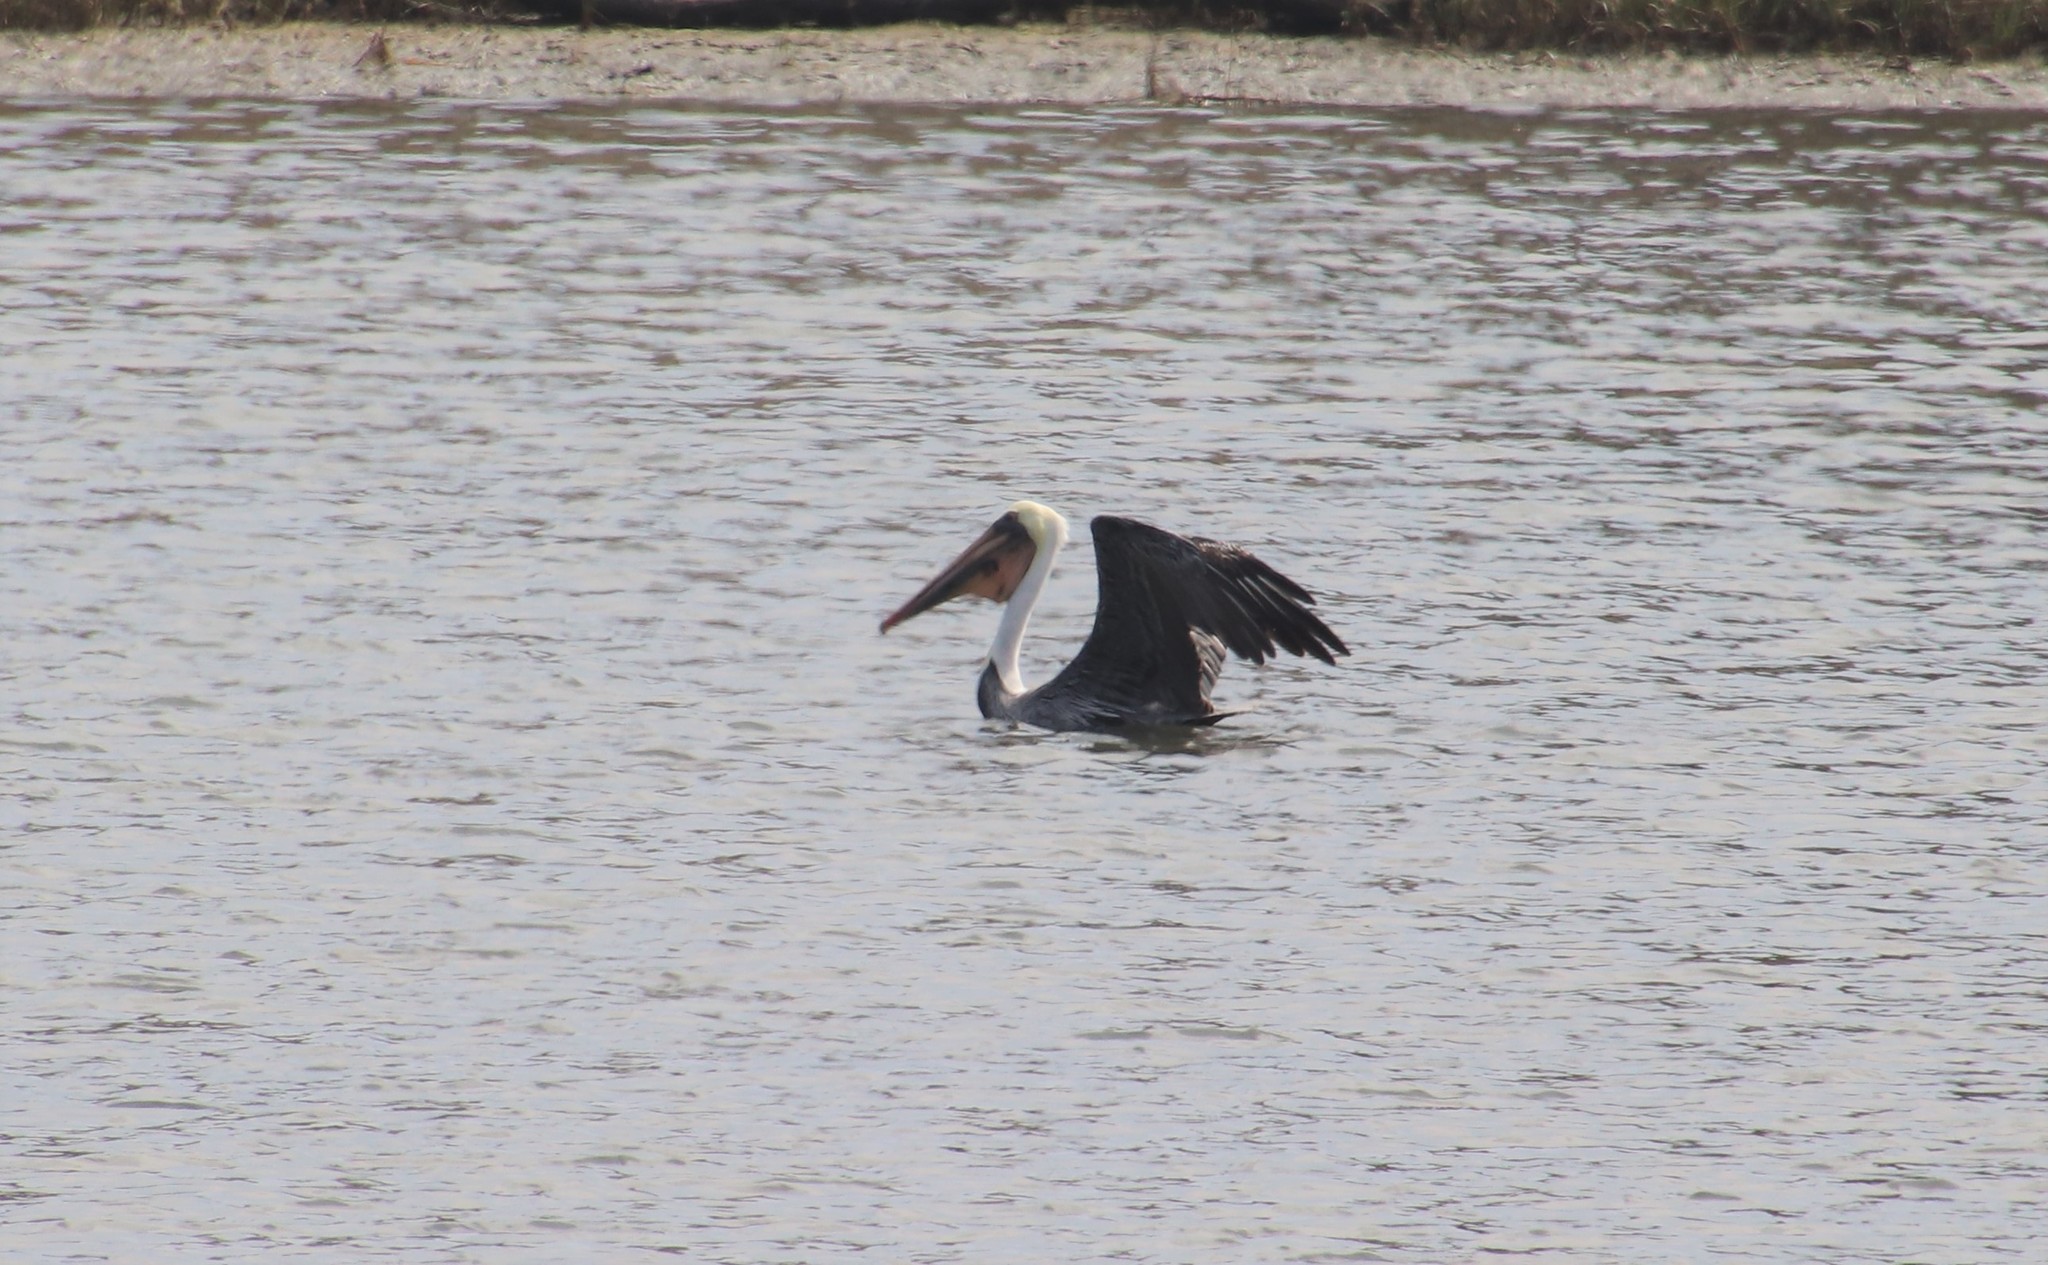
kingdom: Animalia
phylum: Chordata
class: Aves
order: Pelecaniformes
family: Pelecanidae
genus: Pelecanus
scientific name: Pelecanus occidentalis
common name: Brown pelican
